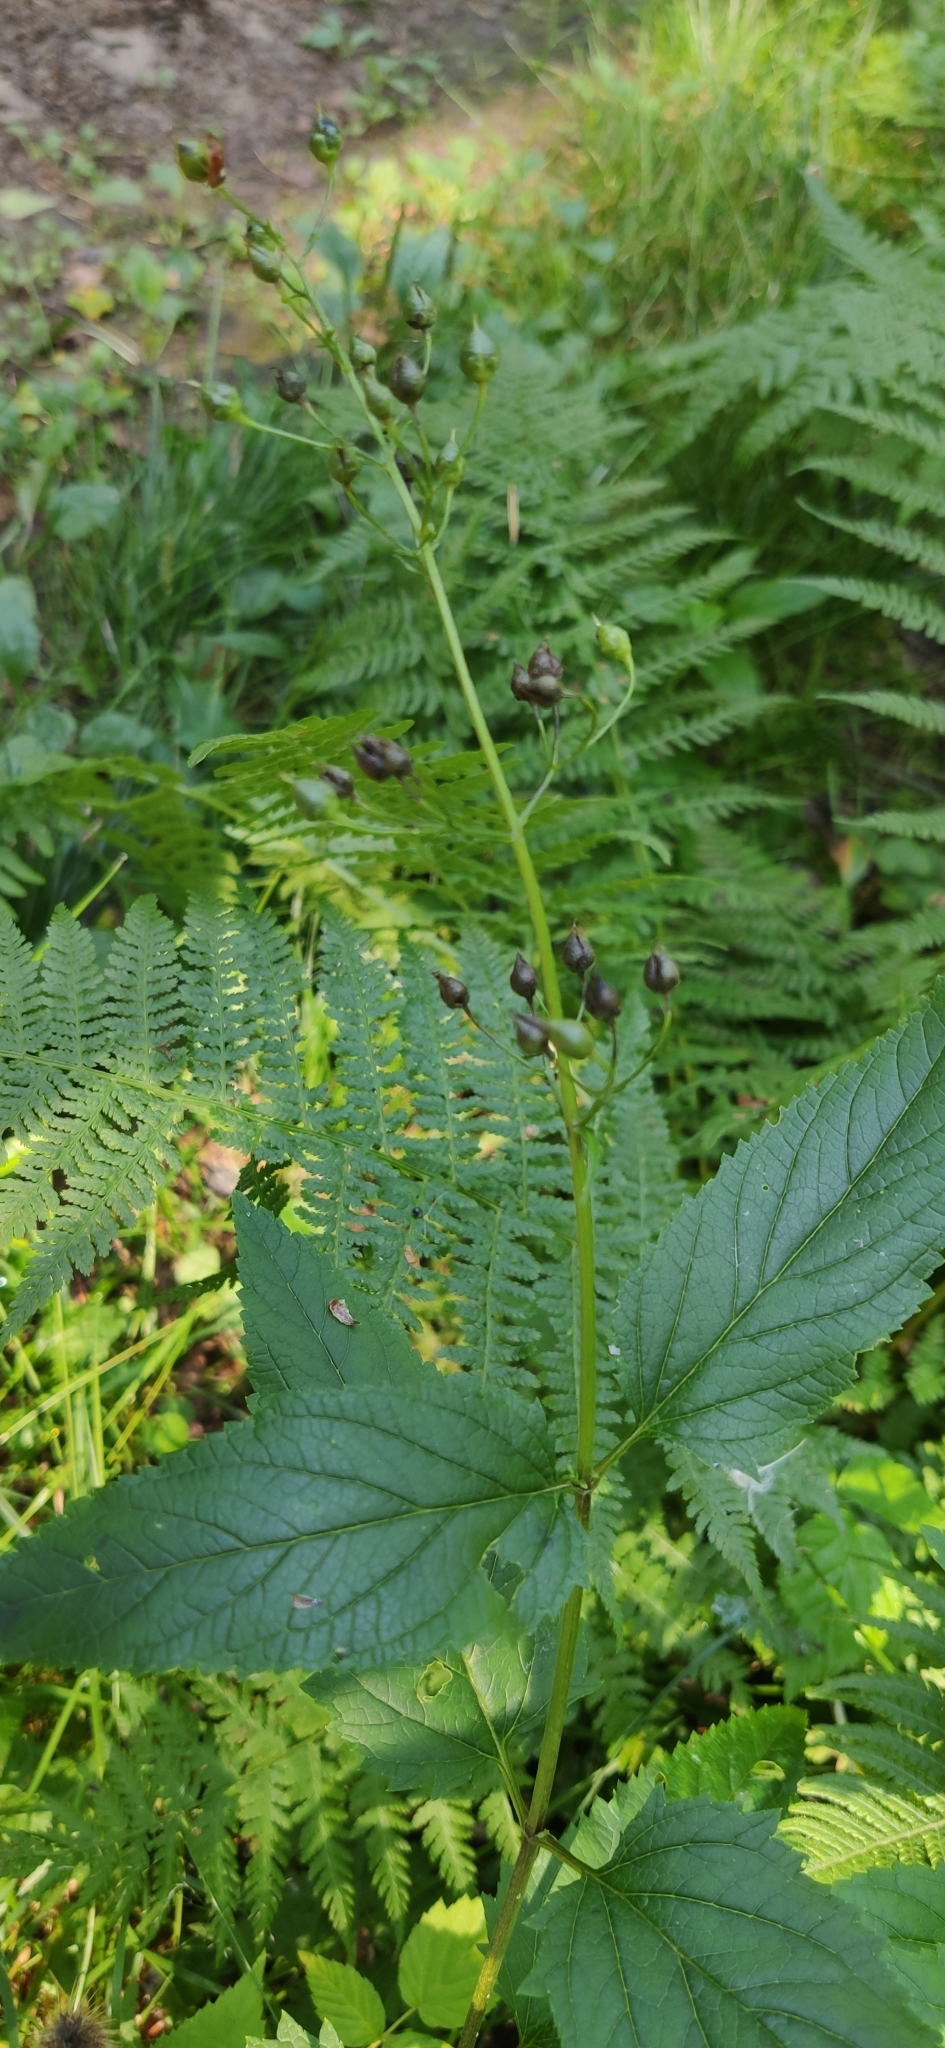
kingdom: Plantae
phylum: Tracheophyta
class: Magnoliopsida
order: Lamiales
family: Scrophulariaceae
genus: Scrophularia
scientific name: Scrophularia nodosa
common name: Common figwort
